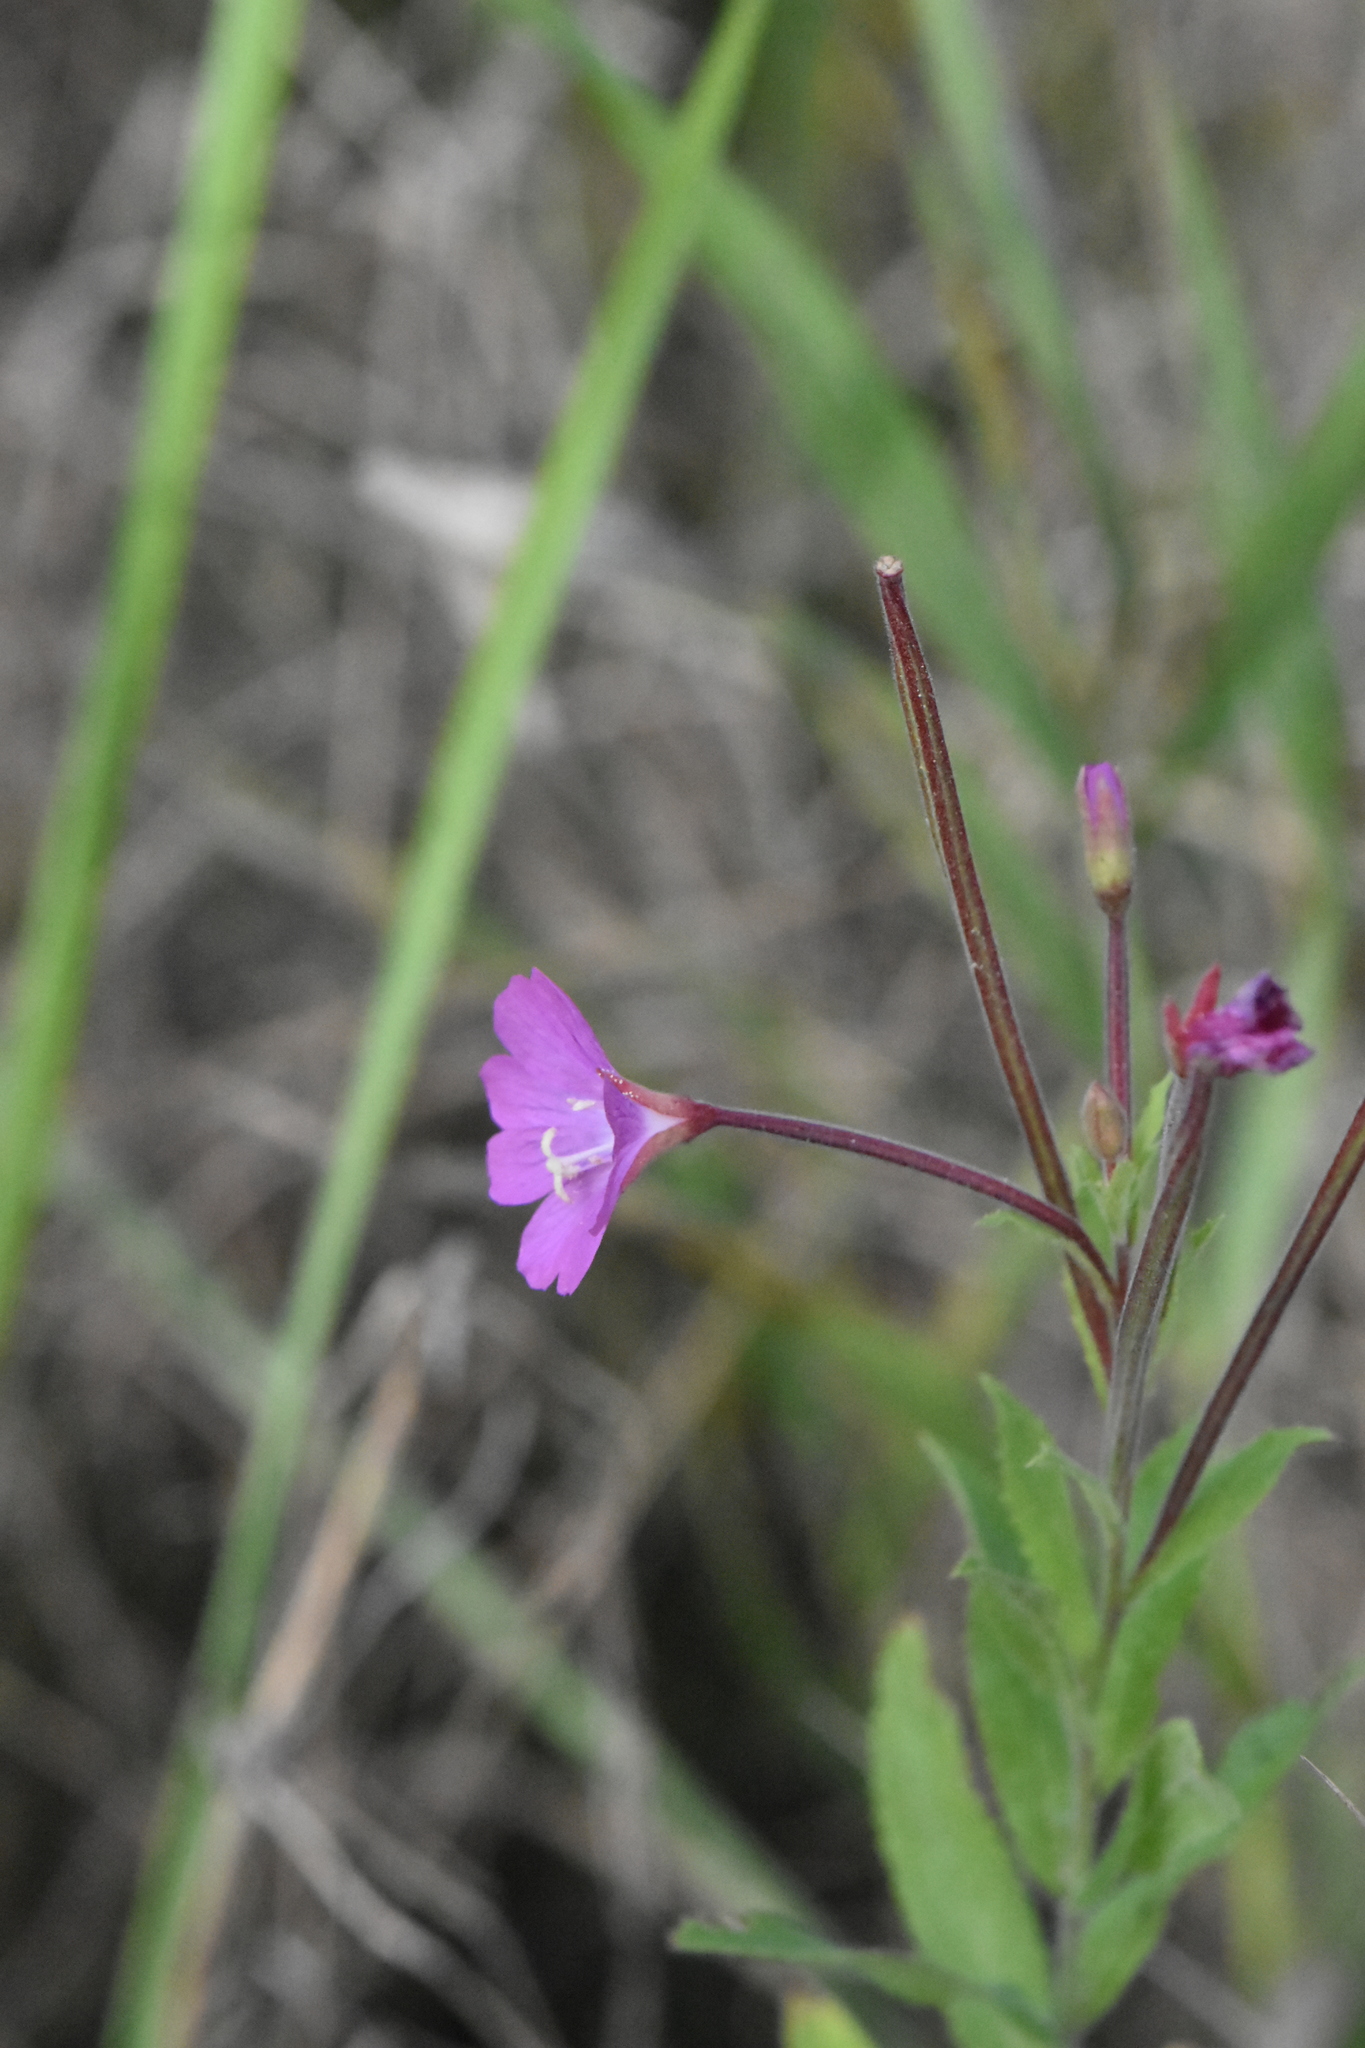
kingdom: Plantae
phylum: Tracheophyta
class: Magnoliopsida
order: Myrtales
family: Onagraceae
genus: Epilobium
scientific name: Epilobium hirsutum
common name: Great willowherb
